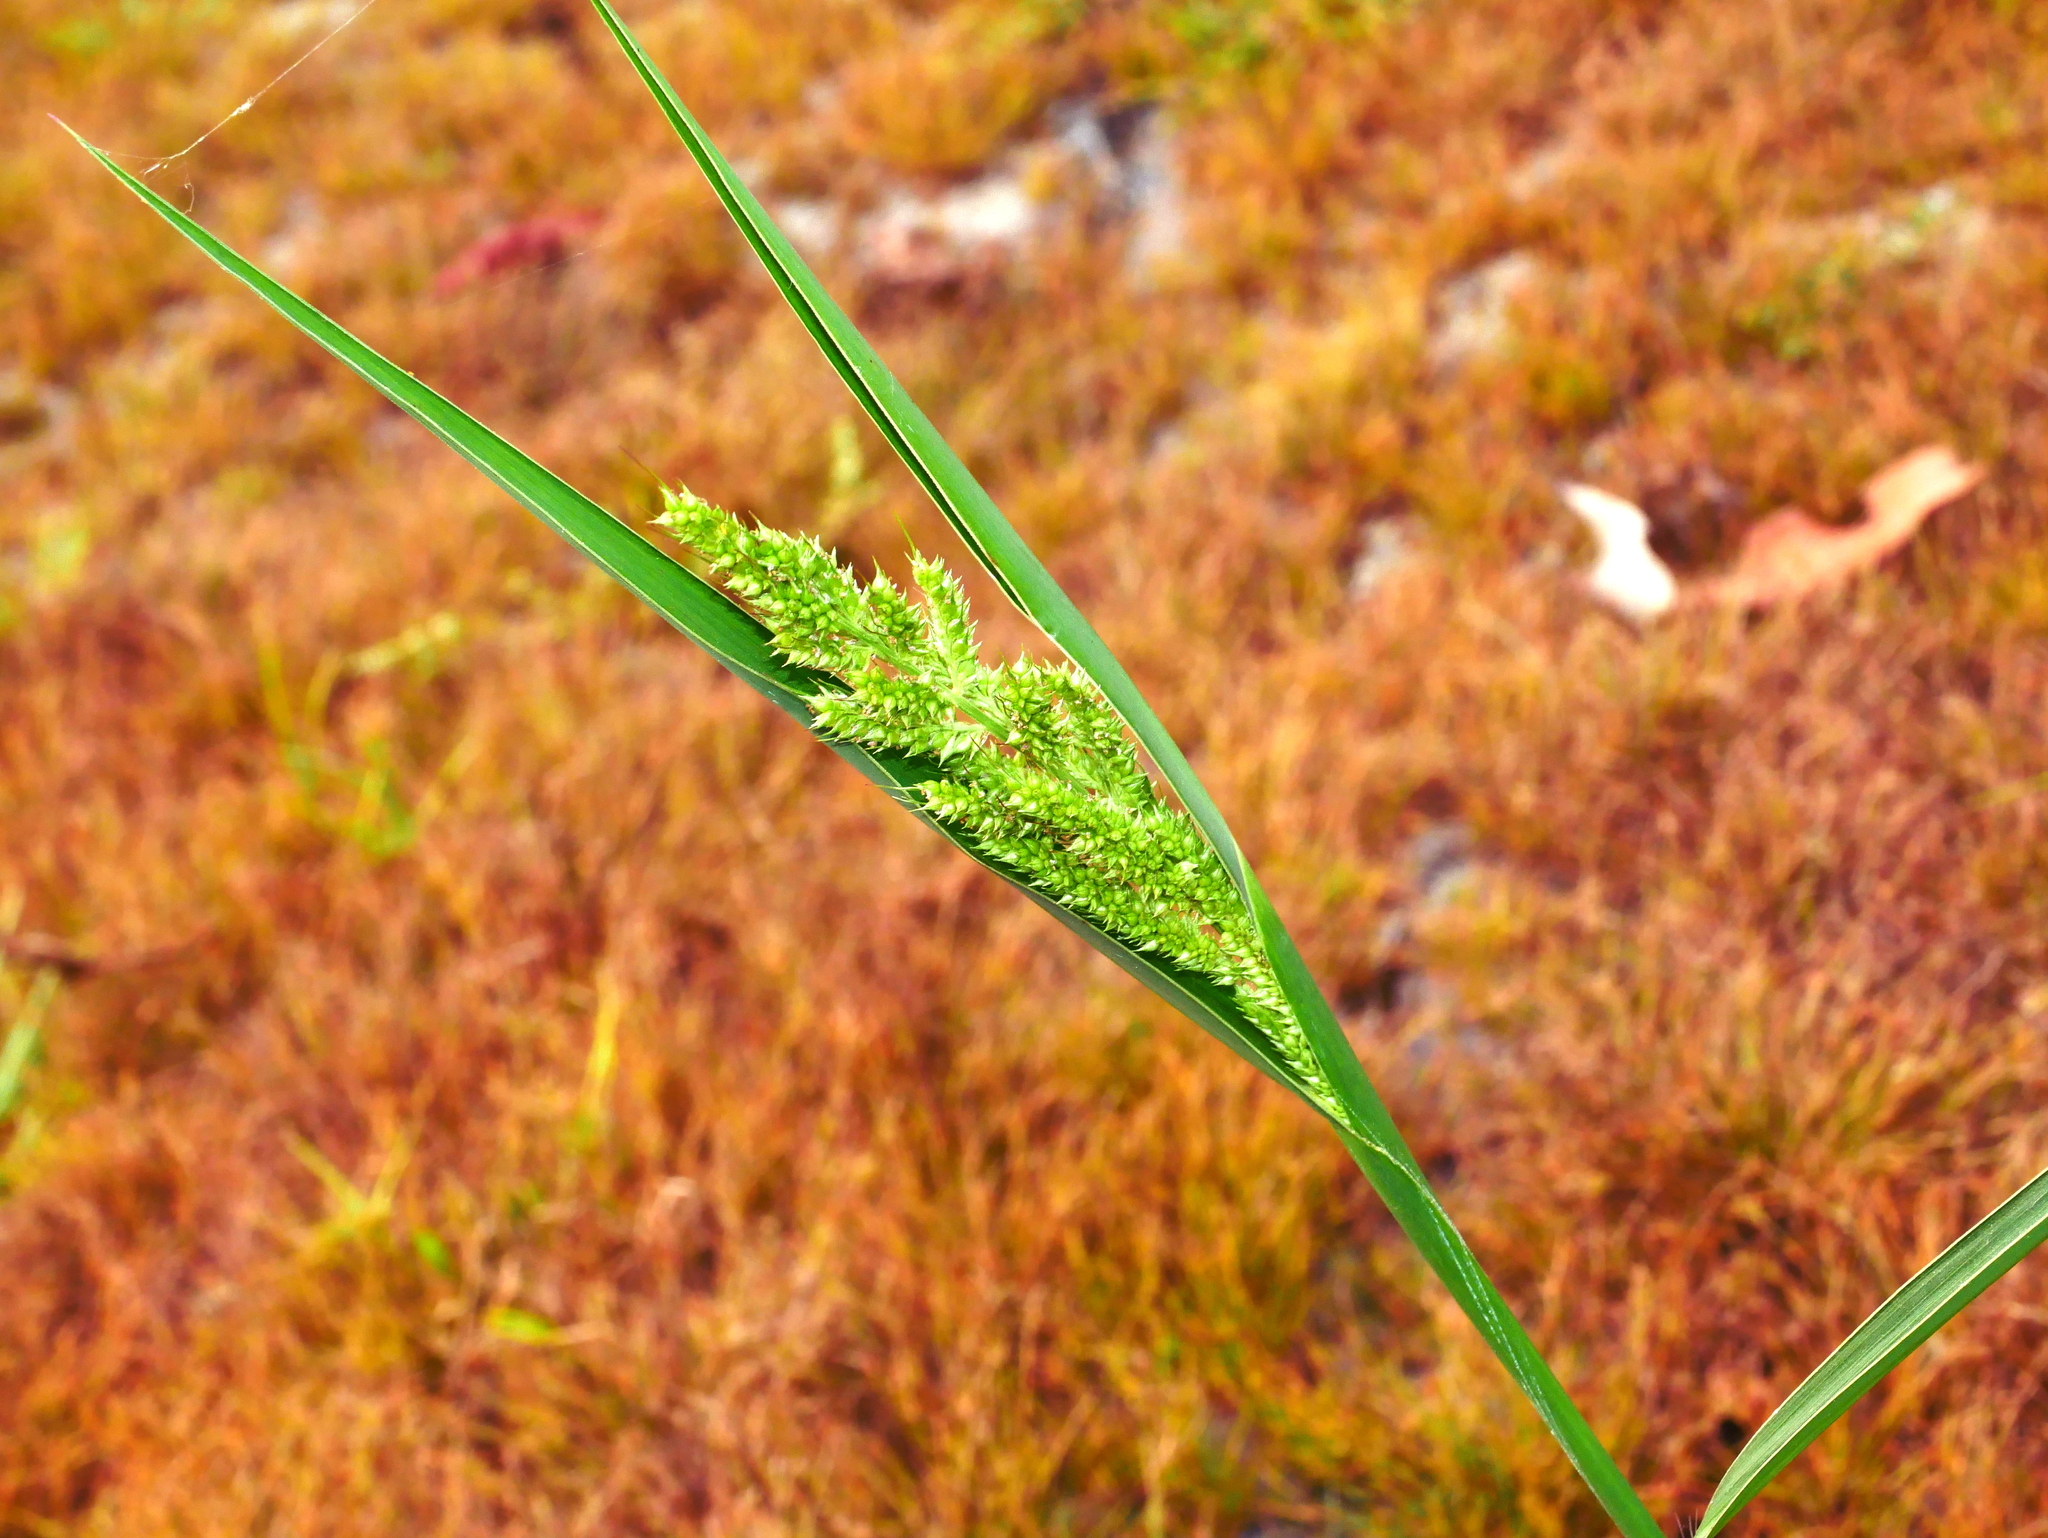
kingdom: Plantae
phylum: Tracheophyta
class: Liliopsida
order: Poales
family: Poaceae
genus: Echinochloa
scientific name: Echinochloa crus-galli
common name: Cockspur
